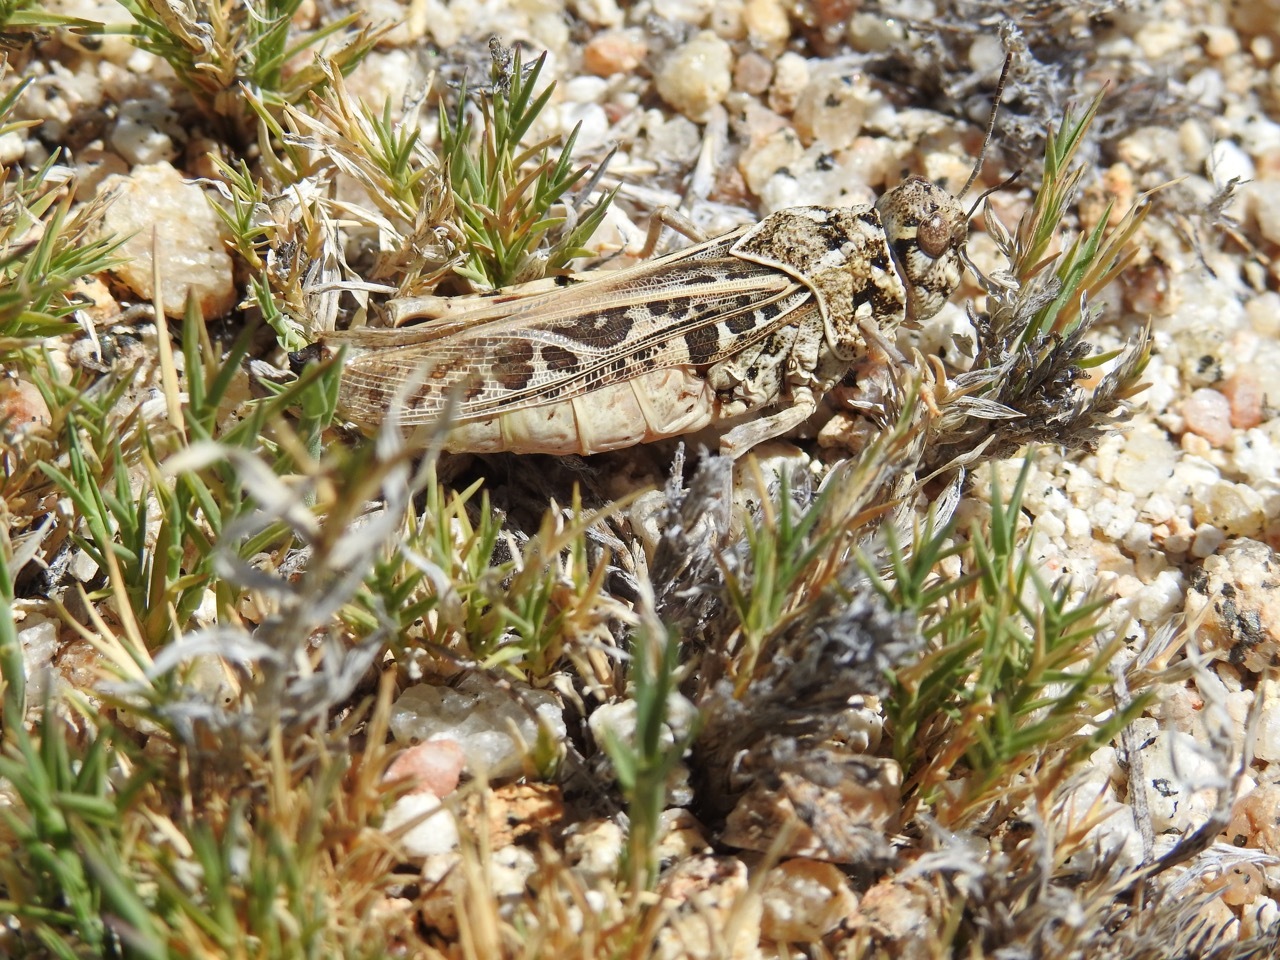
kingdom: Animalia
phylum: Arthropoda
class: Insecta
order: Orthoptera
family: Acrididae
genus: Xanthippus
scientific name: Xanthippus corallipes
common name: Redshanked grasshopper
